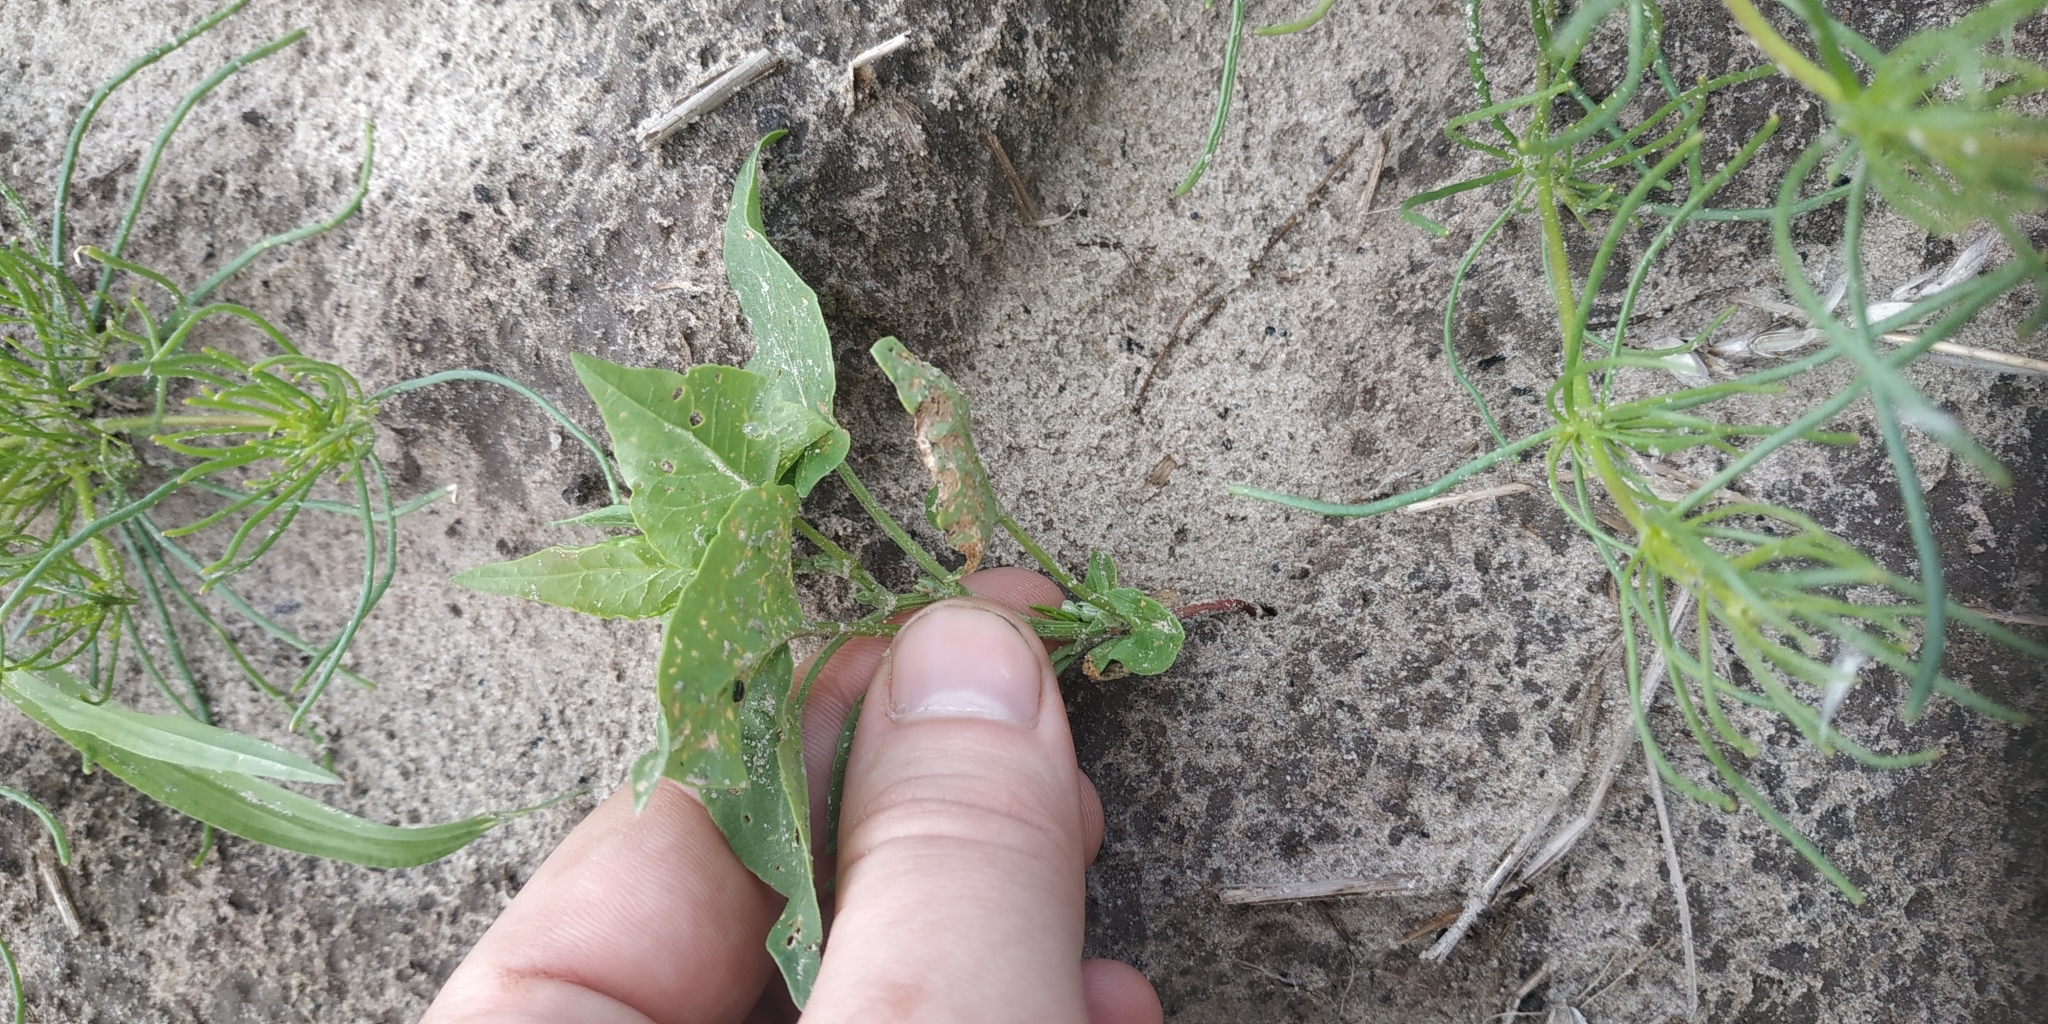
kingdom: Plantae
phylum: Tracheophyta
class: Magnoliopsida
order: Caryophyllales
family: Polygonaceae
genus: Fallopia
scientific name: Fallopia convolvulus
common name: Black bindweed
